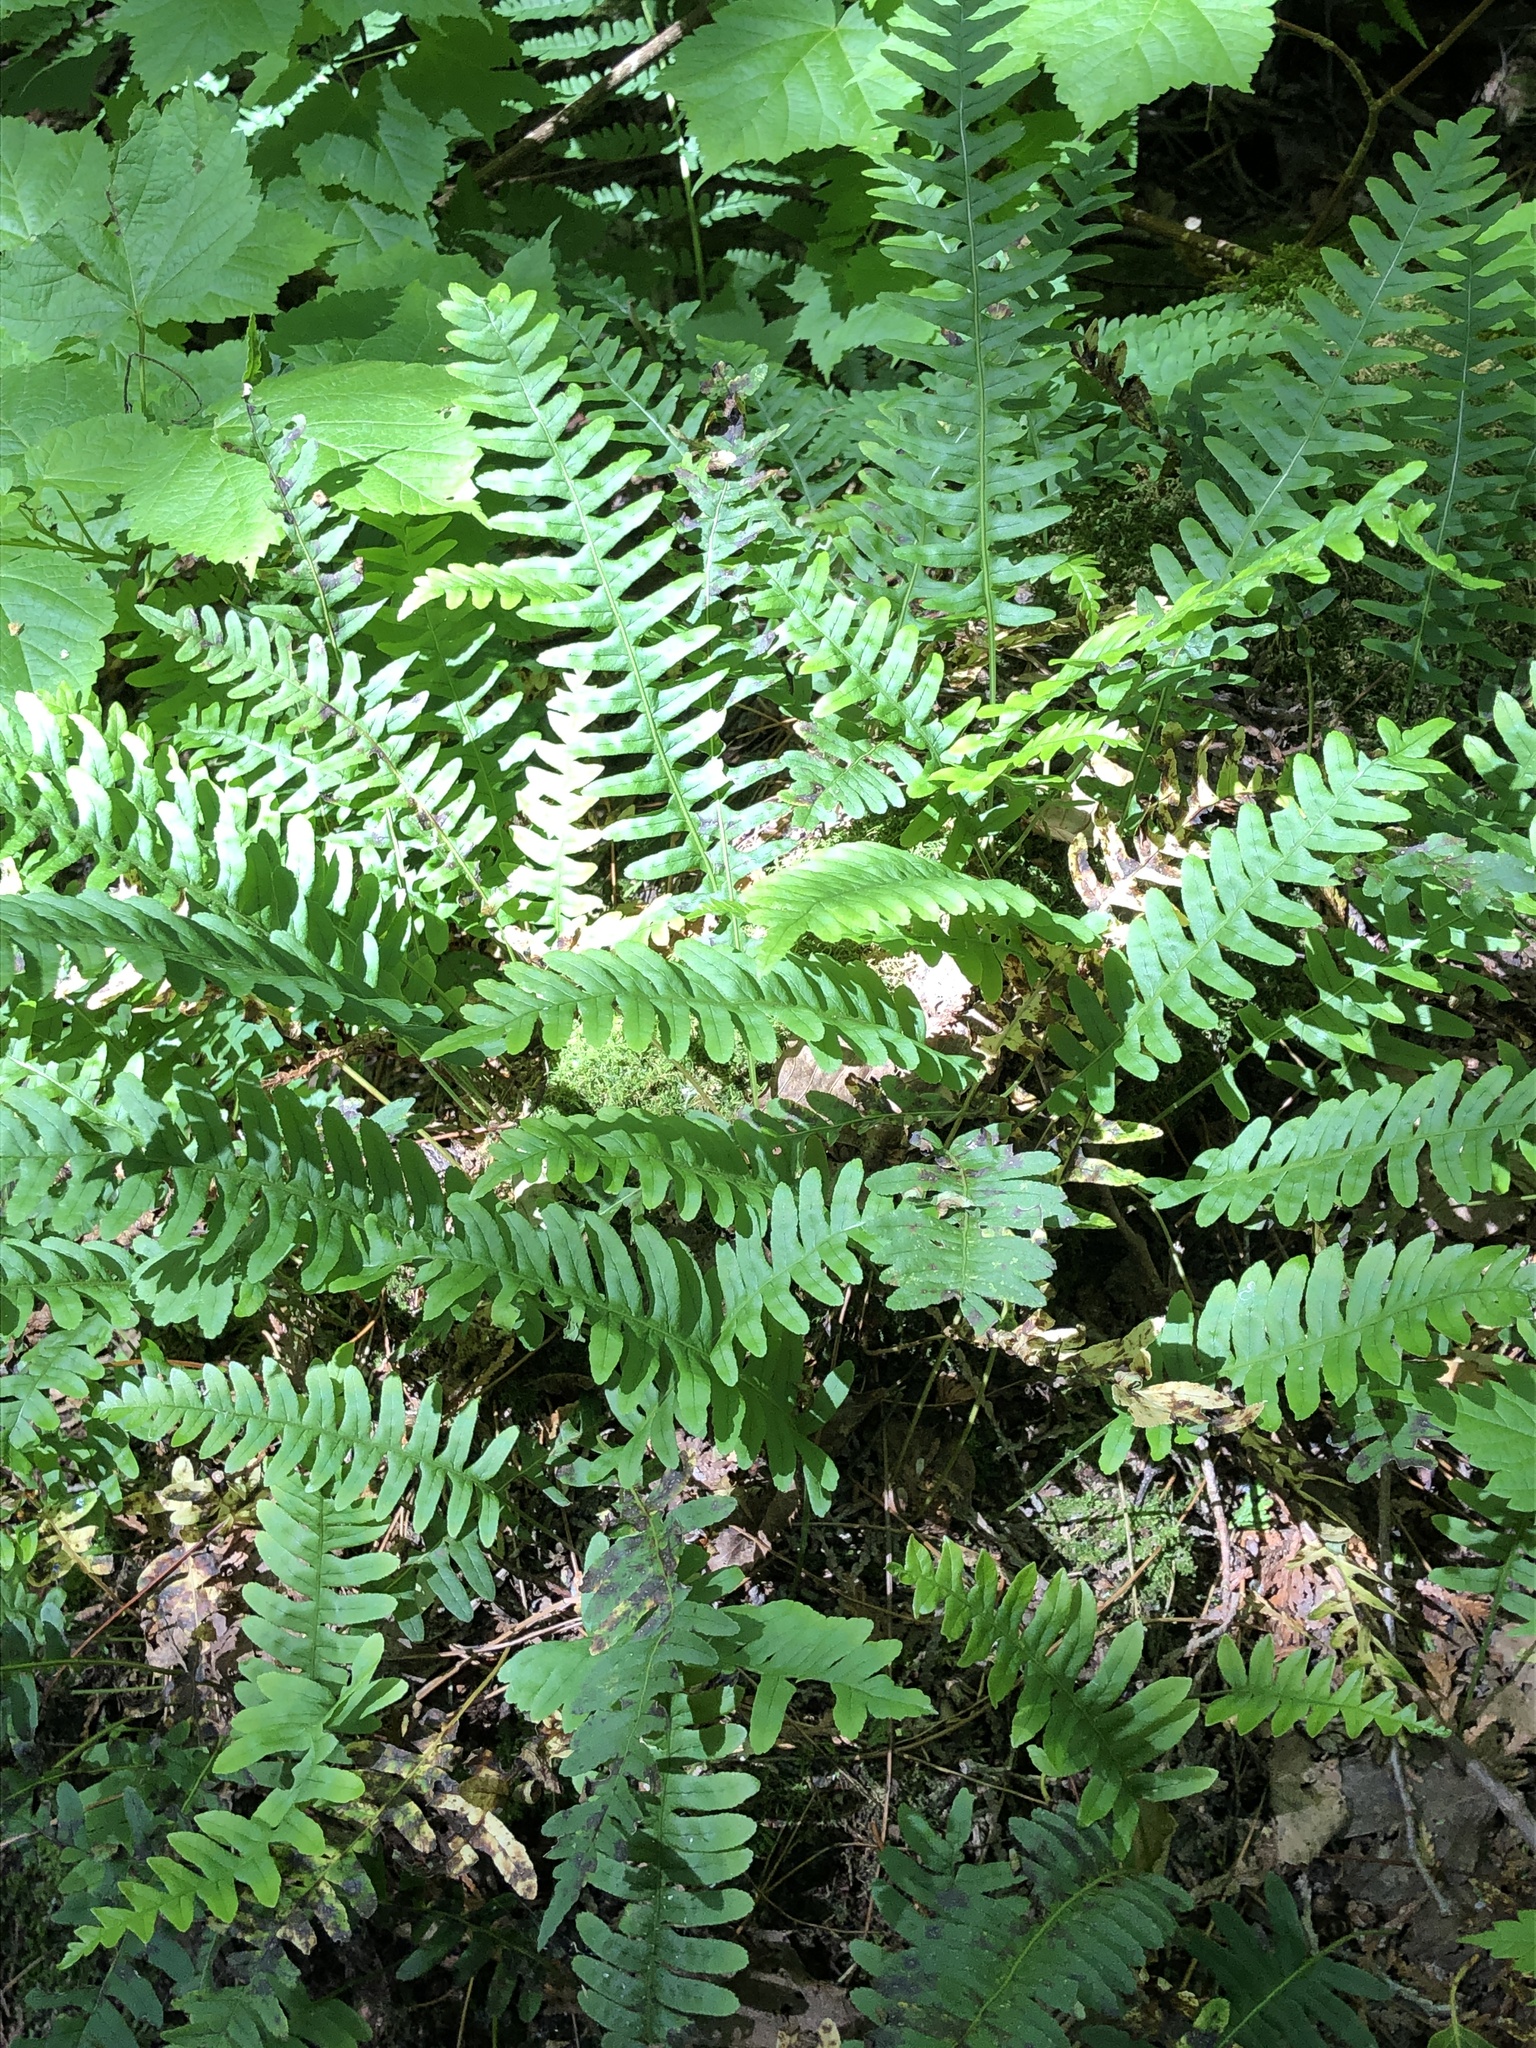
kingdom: Plantae
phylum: Tracheophyta
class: Polypodiopsida
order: Polypodiales
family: Polypodiaceae
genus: Polypodium
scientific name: Polypodium virginianum
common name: American wall fern
